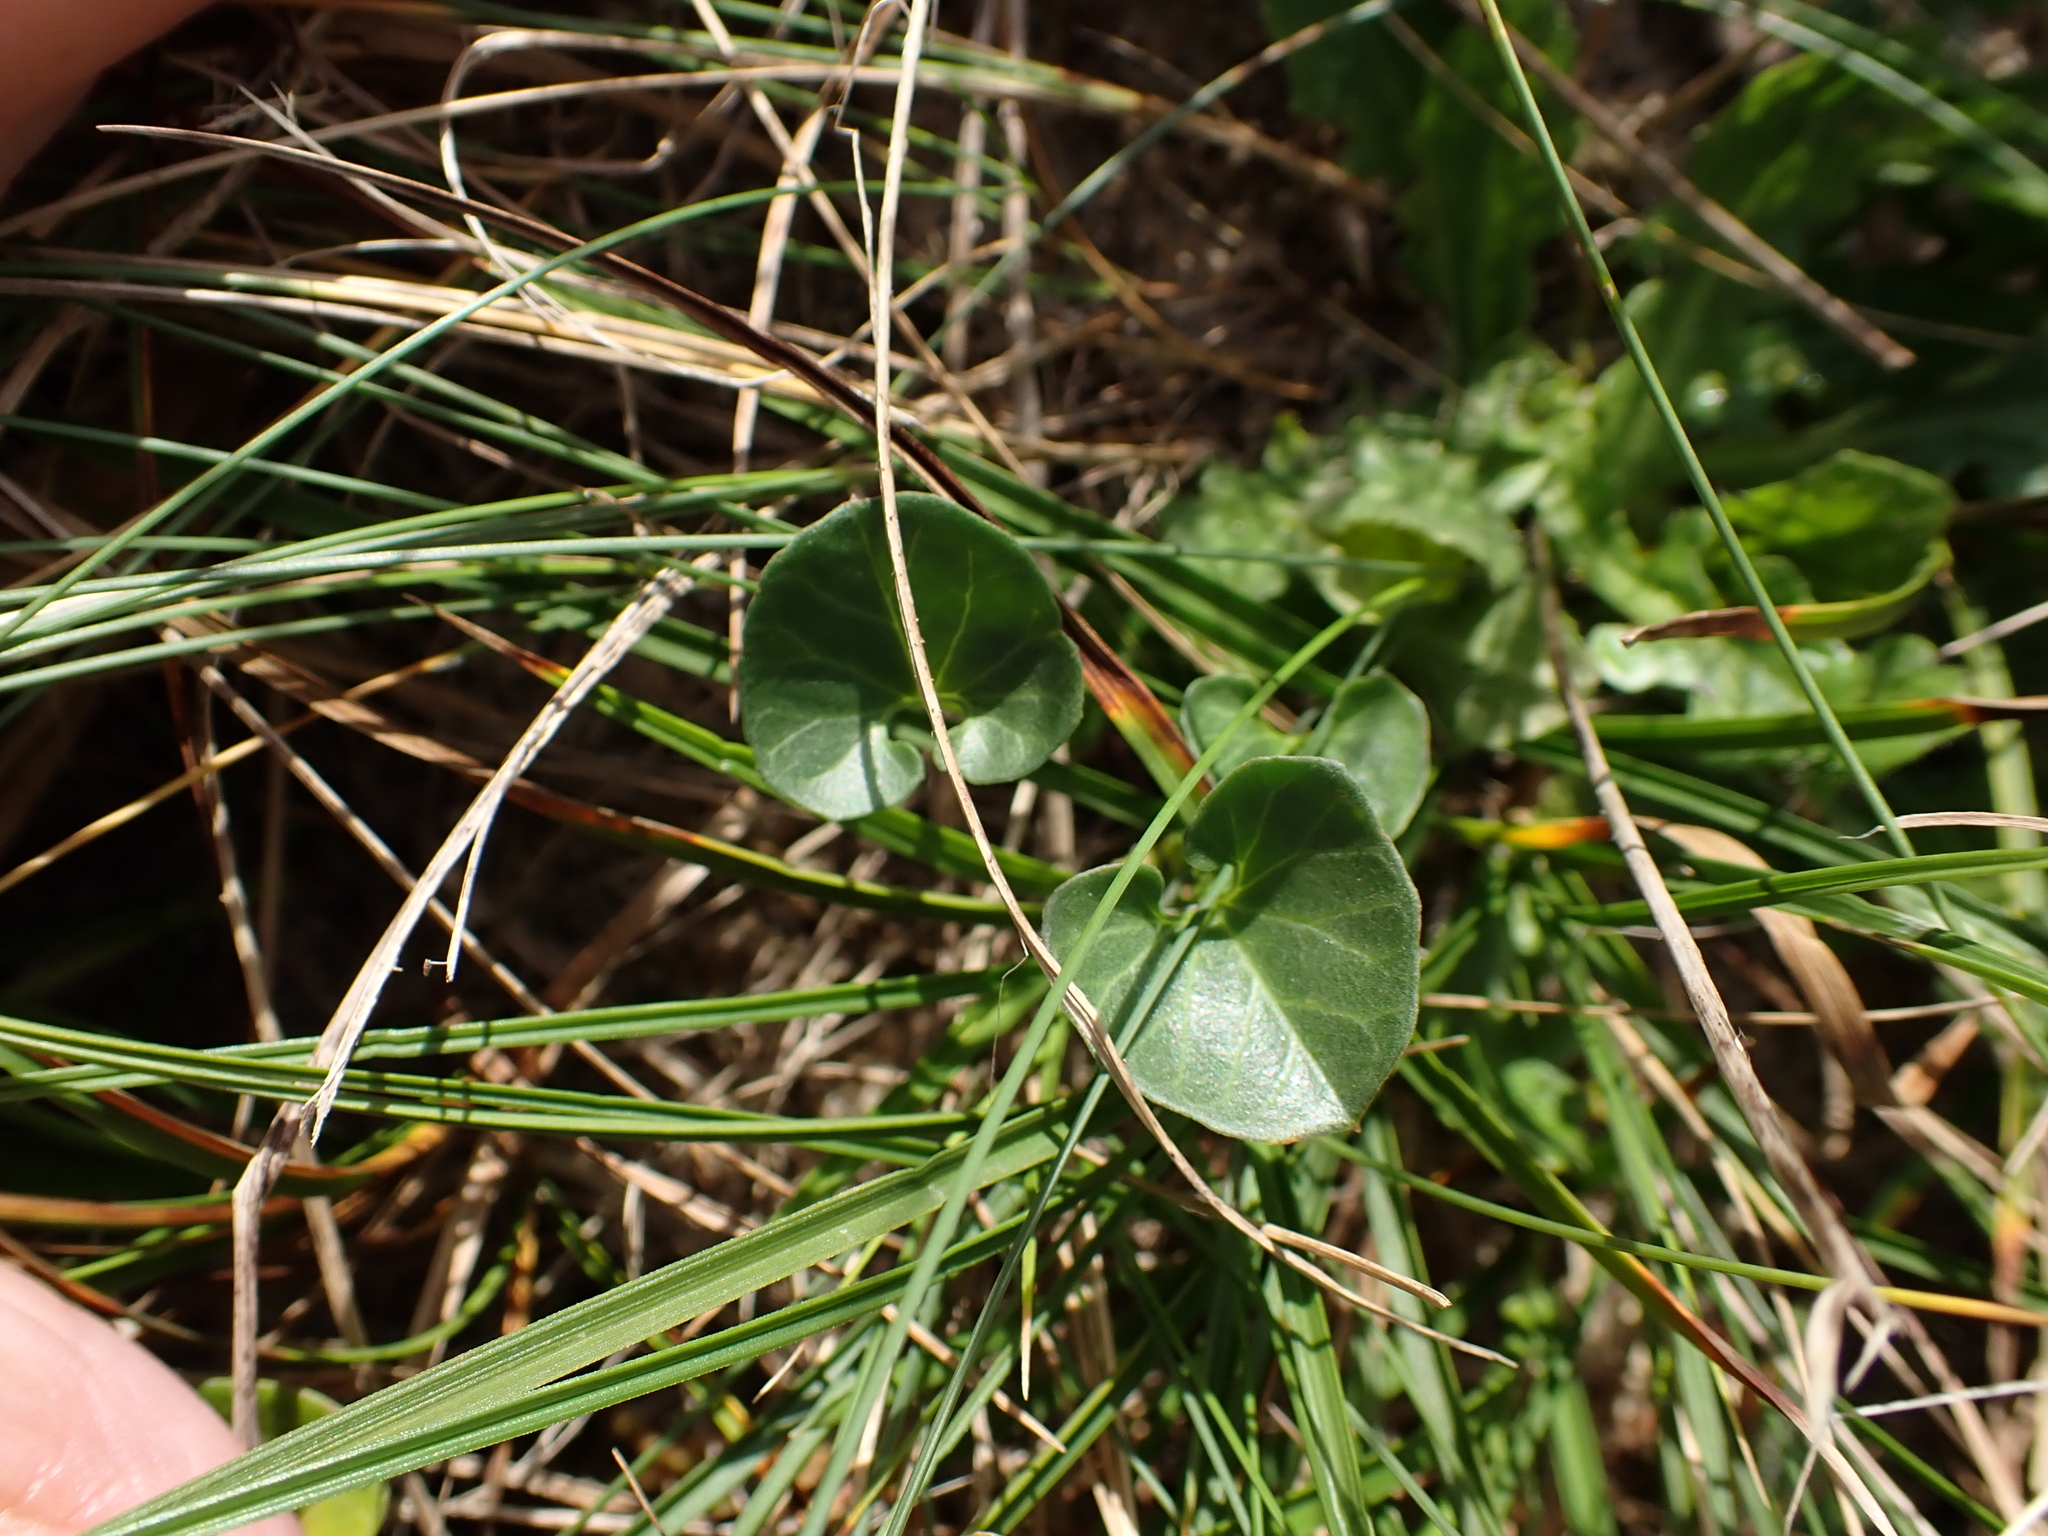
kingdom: Plantae
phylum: Tracheophyta
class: Magnoliopsida
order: Solanales
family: Convolvulaceae
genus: Calystegia
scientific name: Calystegia soldanella
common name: Sea bindweed
